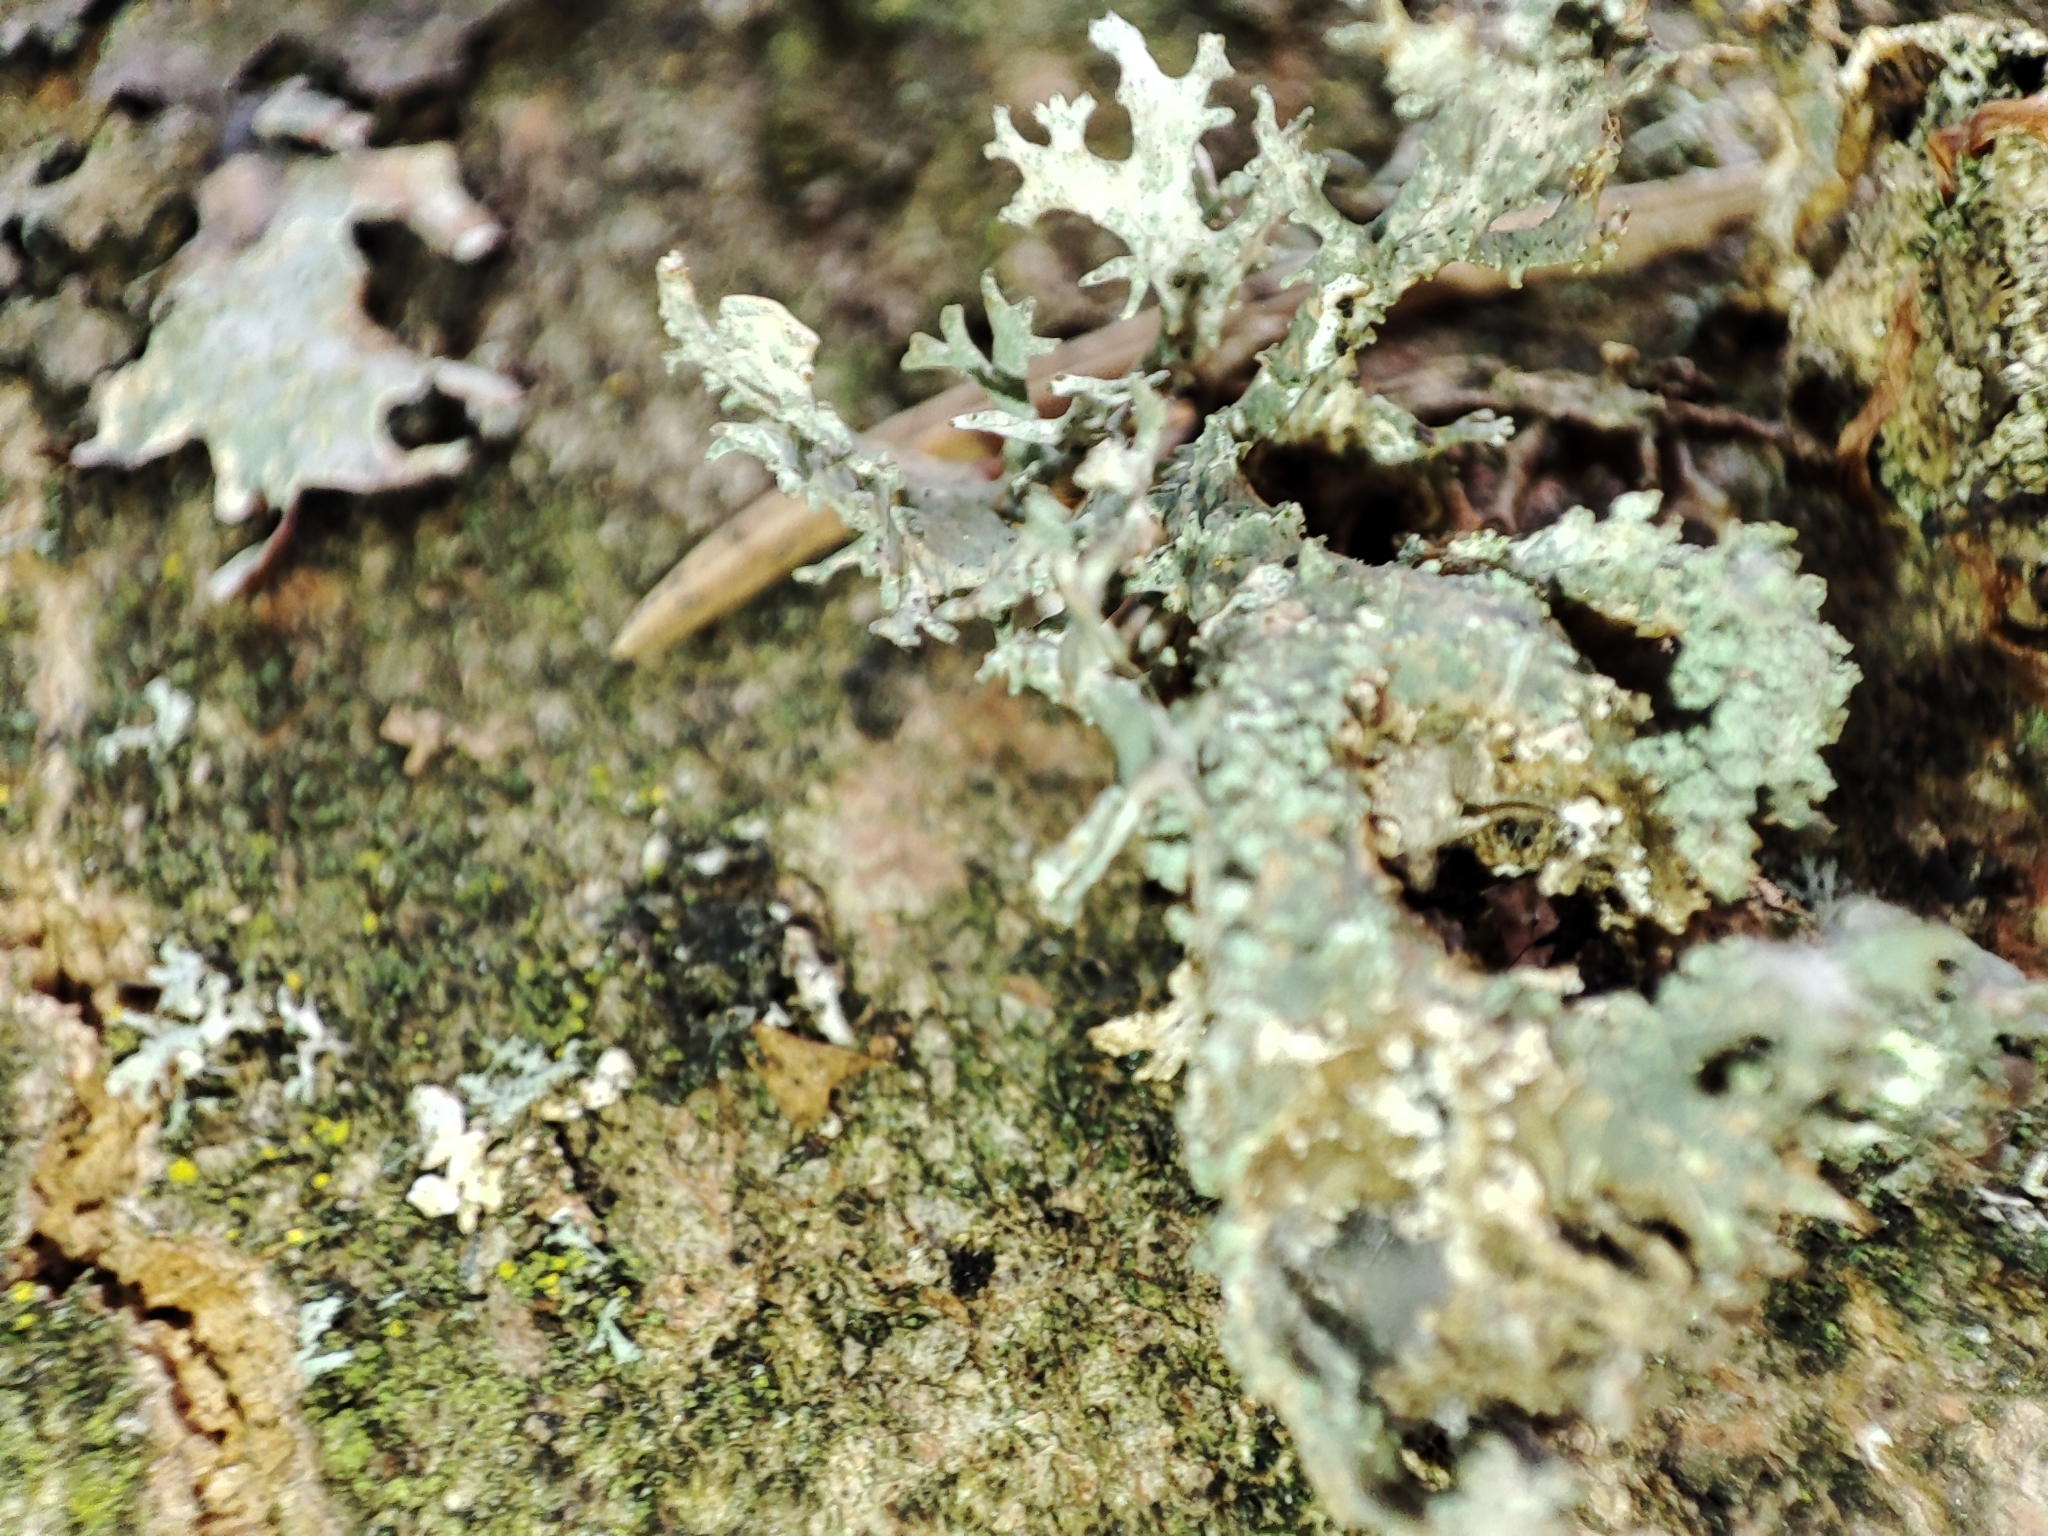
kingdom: Fungi
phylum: Ascomycota
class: Lecanoromycetes
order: Lecanorales
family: Parmeliaceae
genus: Evernia
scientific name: Evernia prunastri
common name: Oak moss
